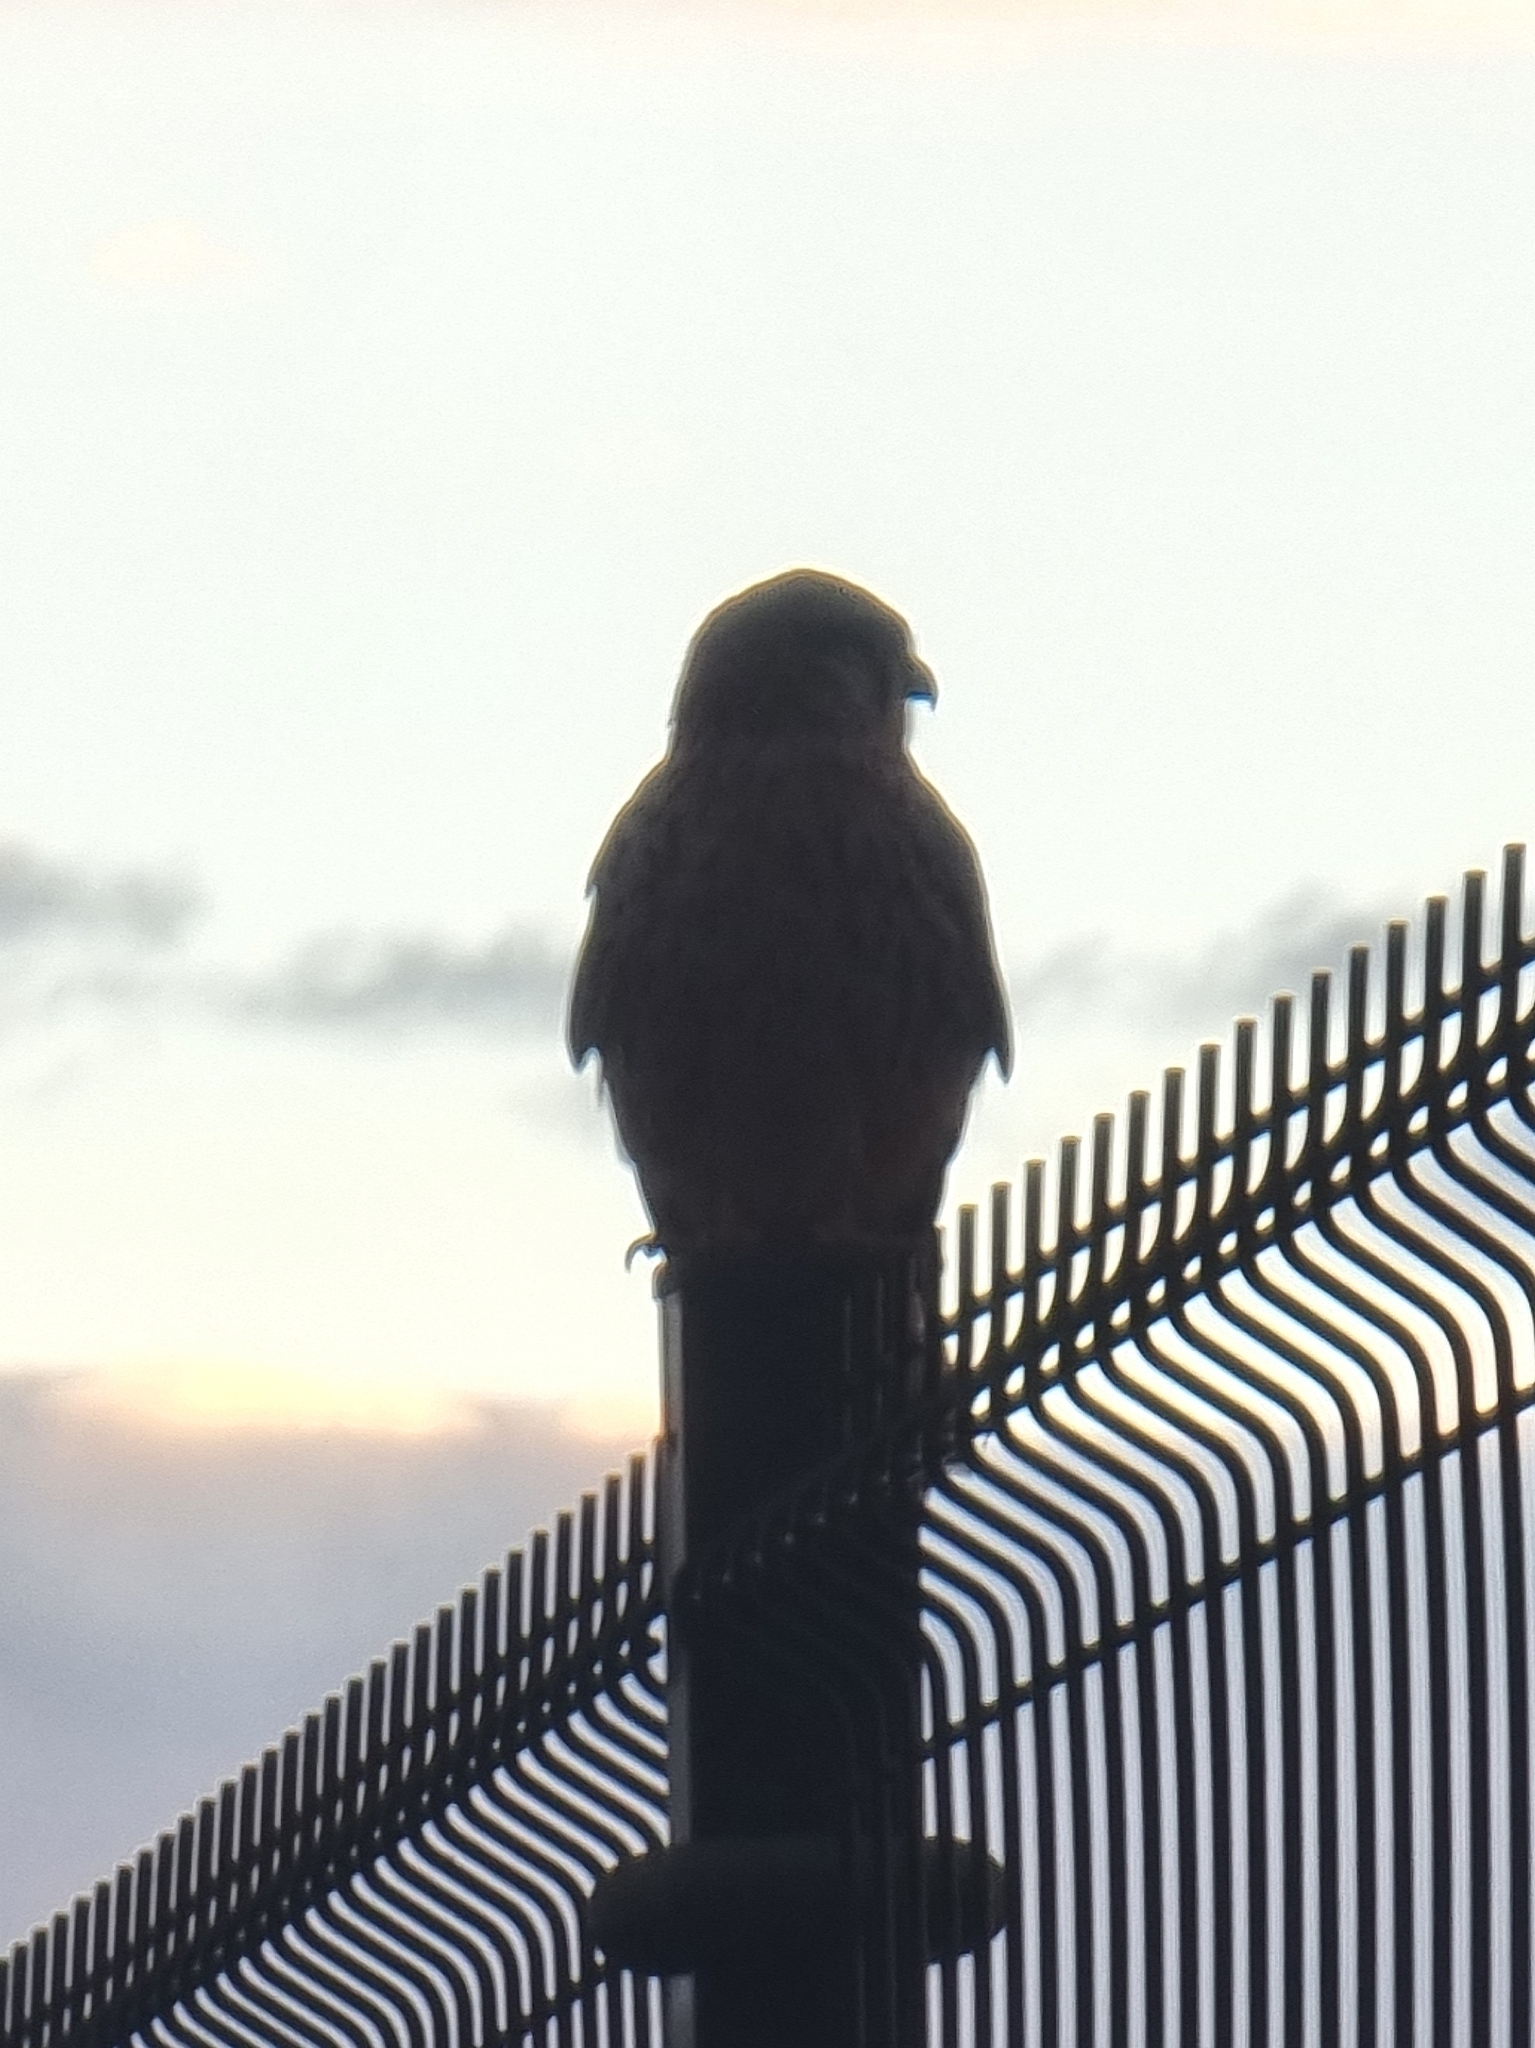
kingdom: Animalia
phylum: Chordata
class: Aves
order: Falconiformes
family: Falconidae
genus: Falco
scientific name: Falco tinnunculus
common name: Common kestrel
